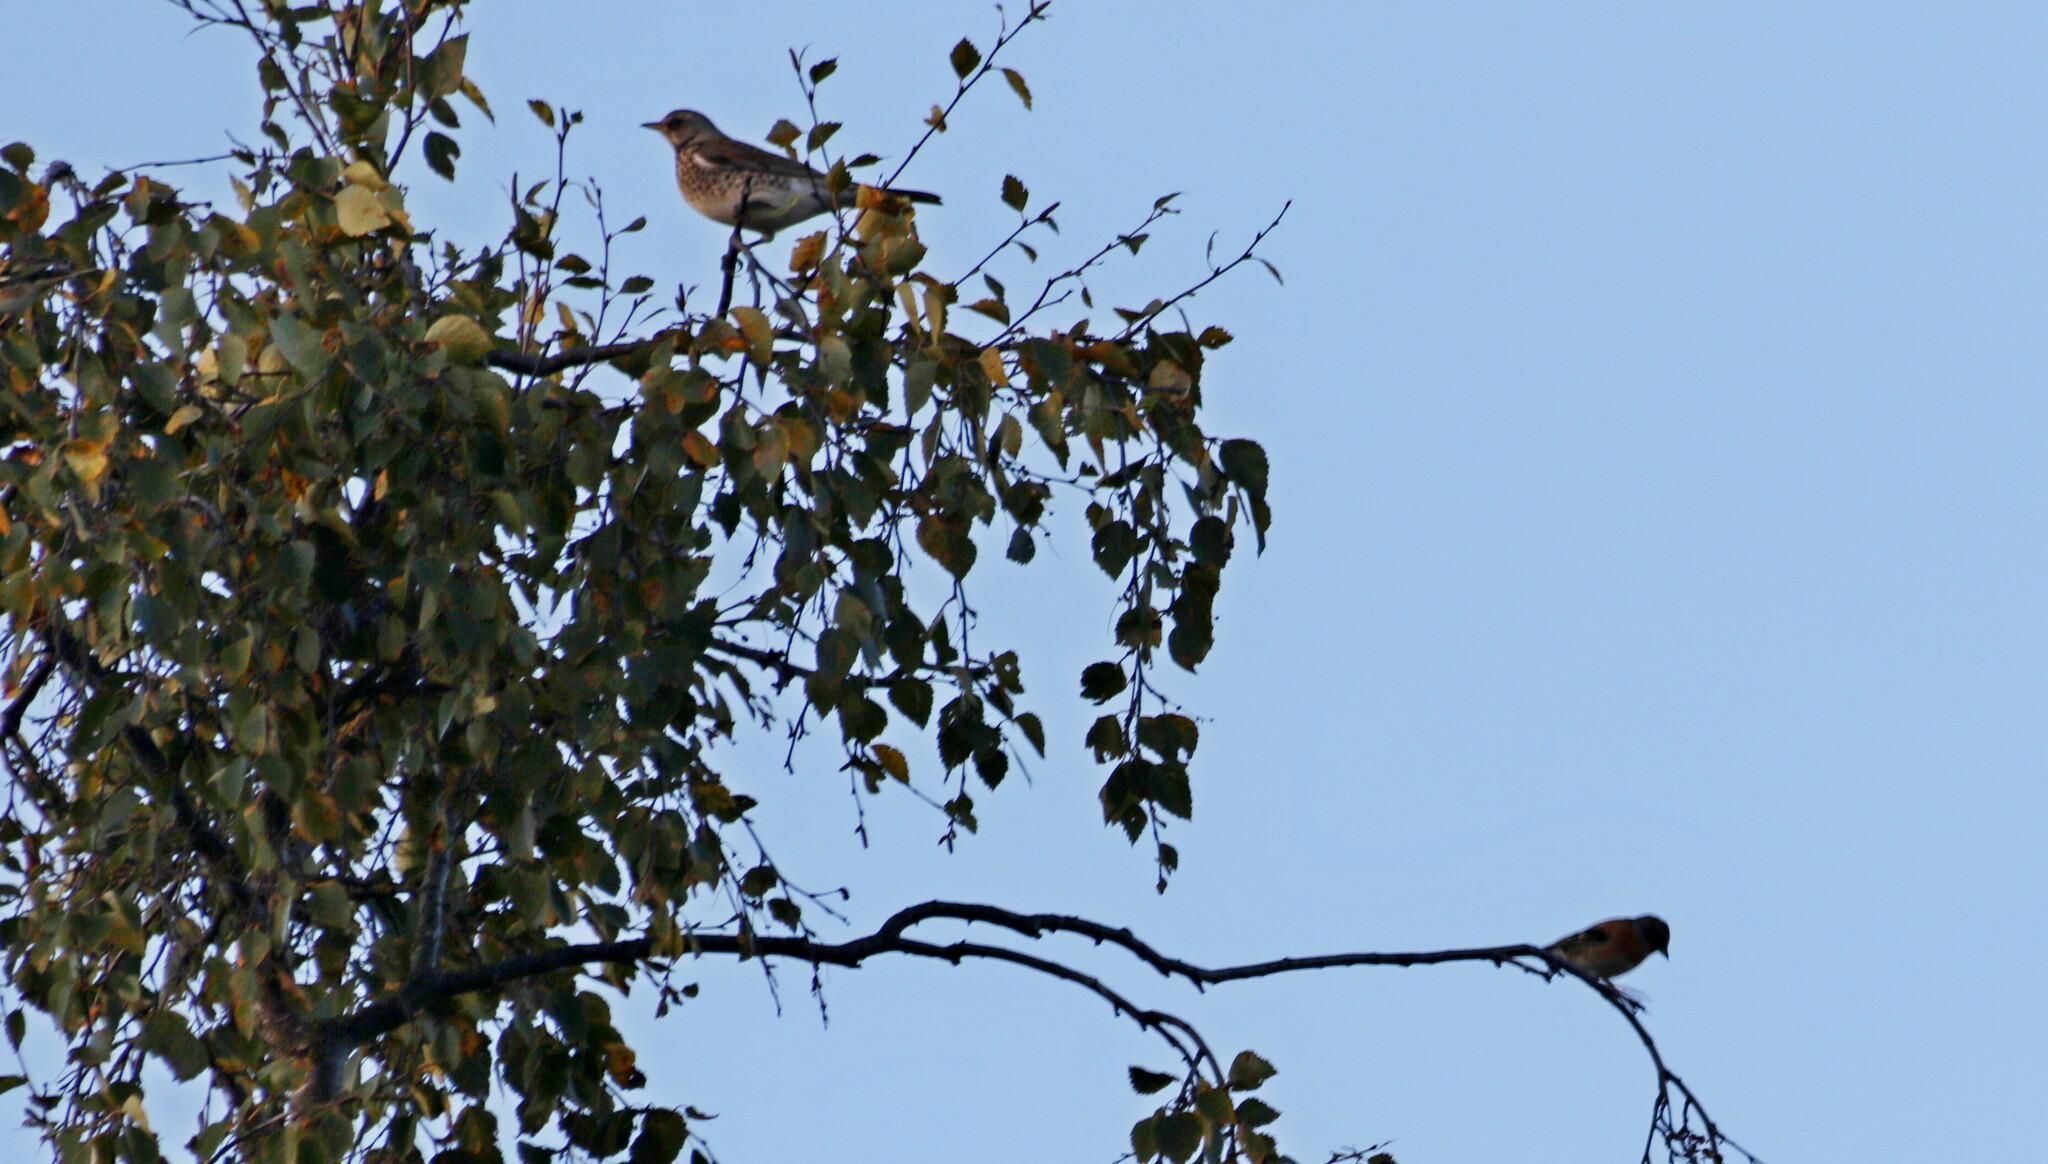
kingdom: Animalia
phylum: Chordata
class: Aves
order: Passeriformes
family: Turdidae
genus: Turdus
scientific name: Turdus pilaris
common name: Fieldfare
